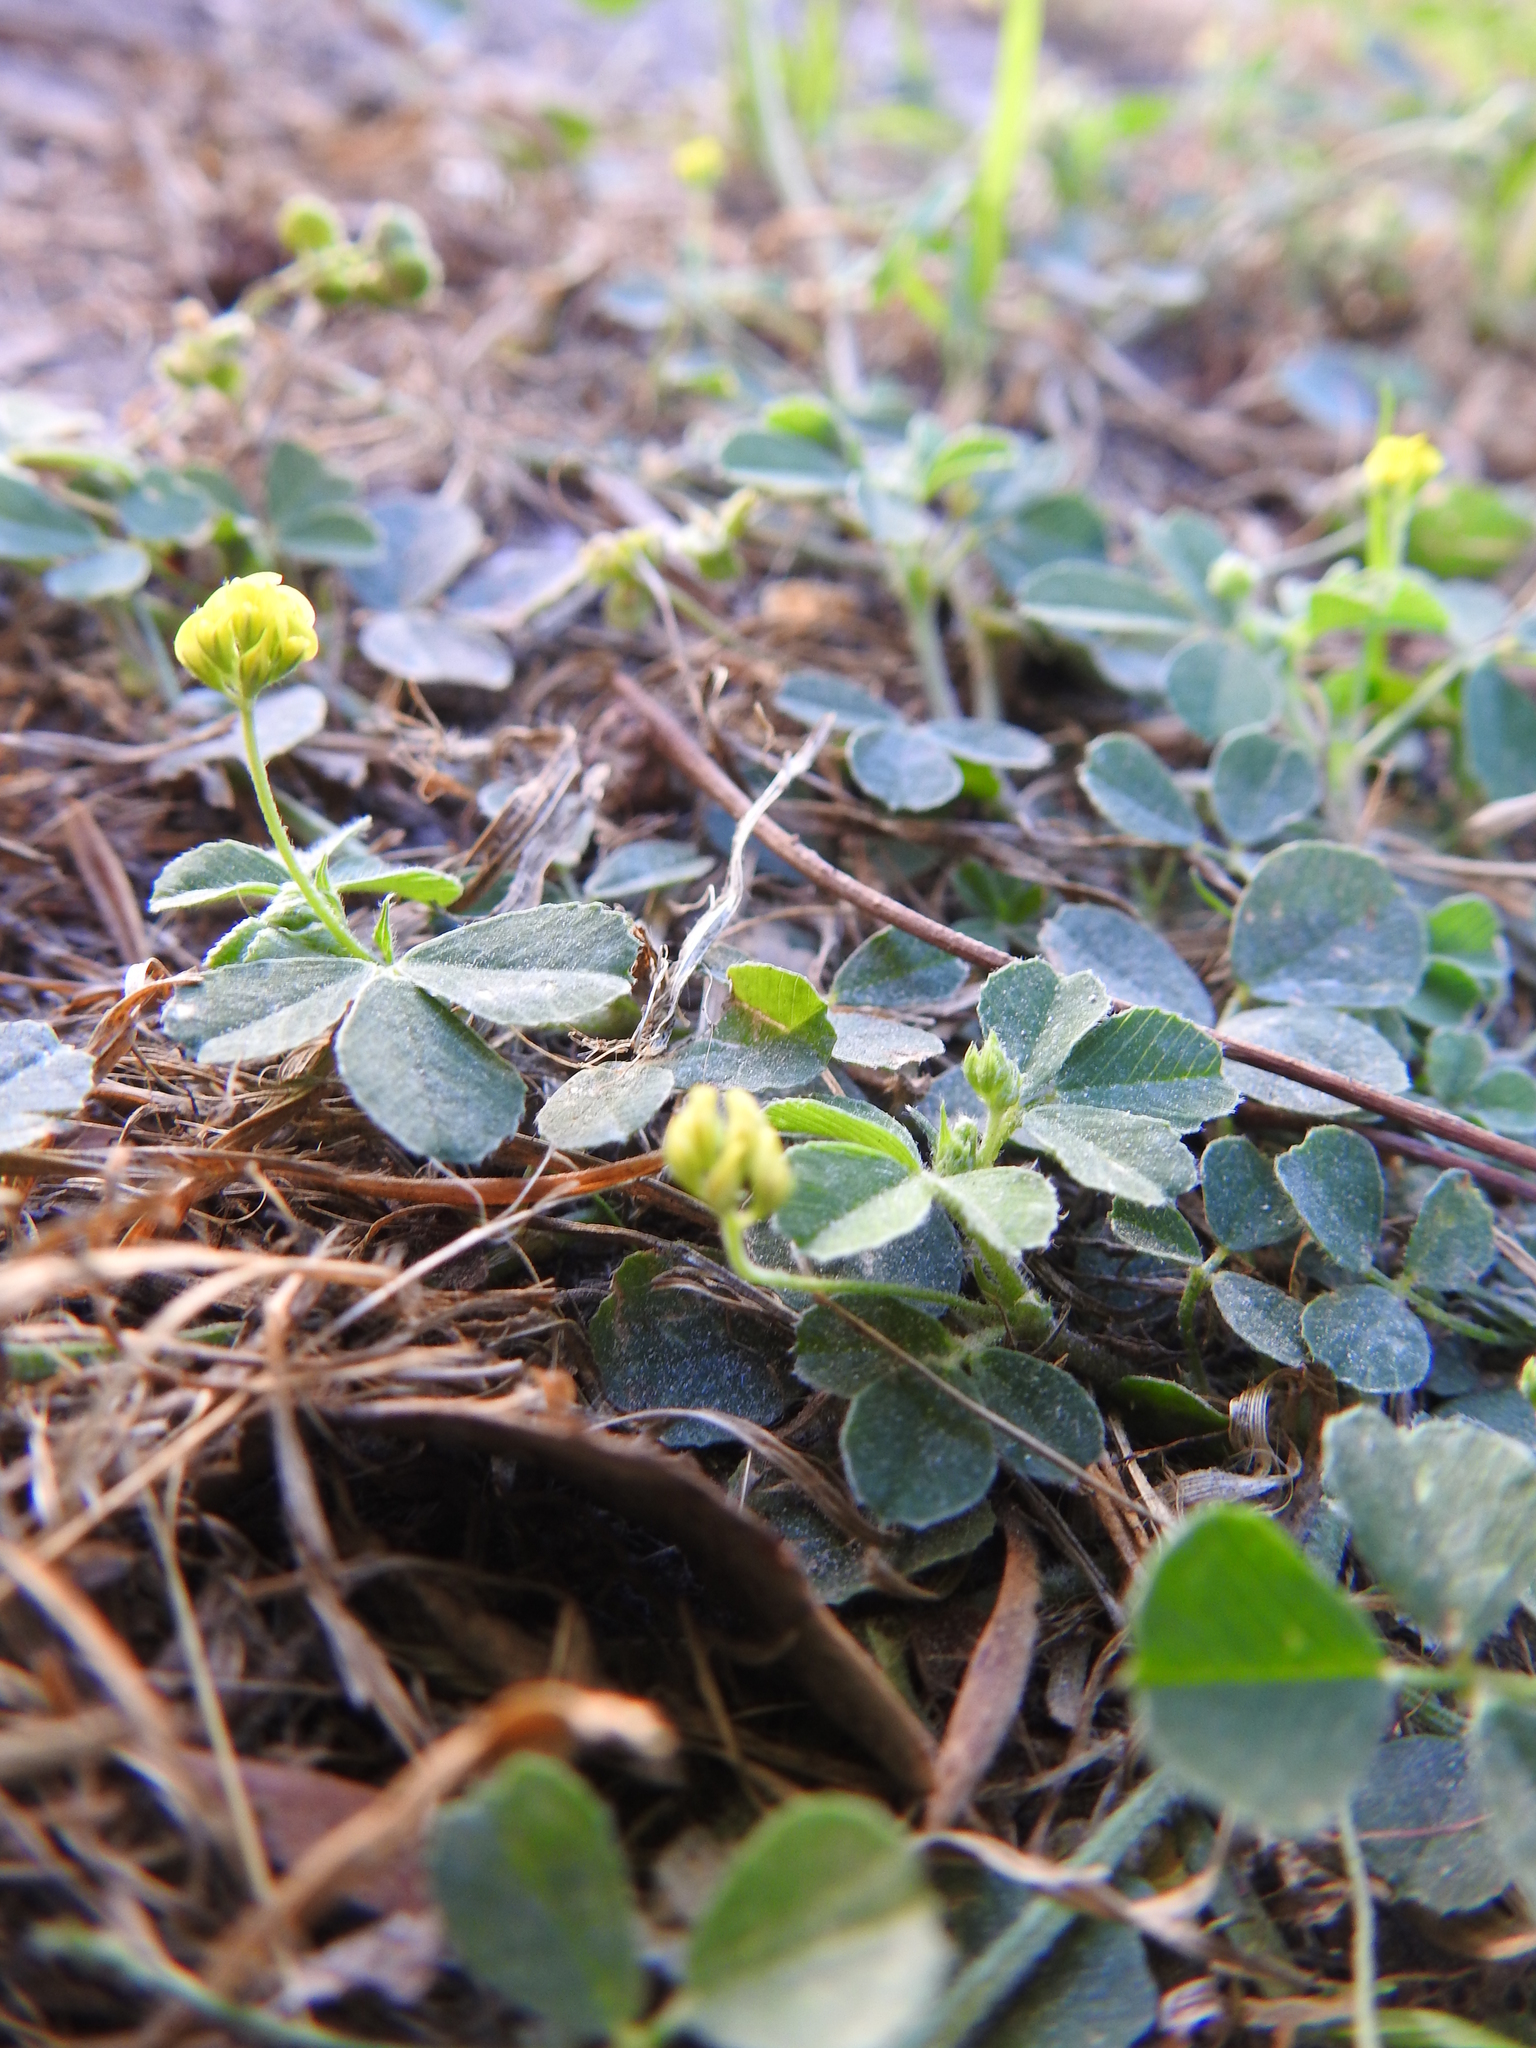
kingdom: Plantae
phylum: Tracheophyta
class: Magnoliopsida
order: Fabales
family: Fabaceae
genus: Medicago
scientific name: Medicago lupulina
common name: Black medick
